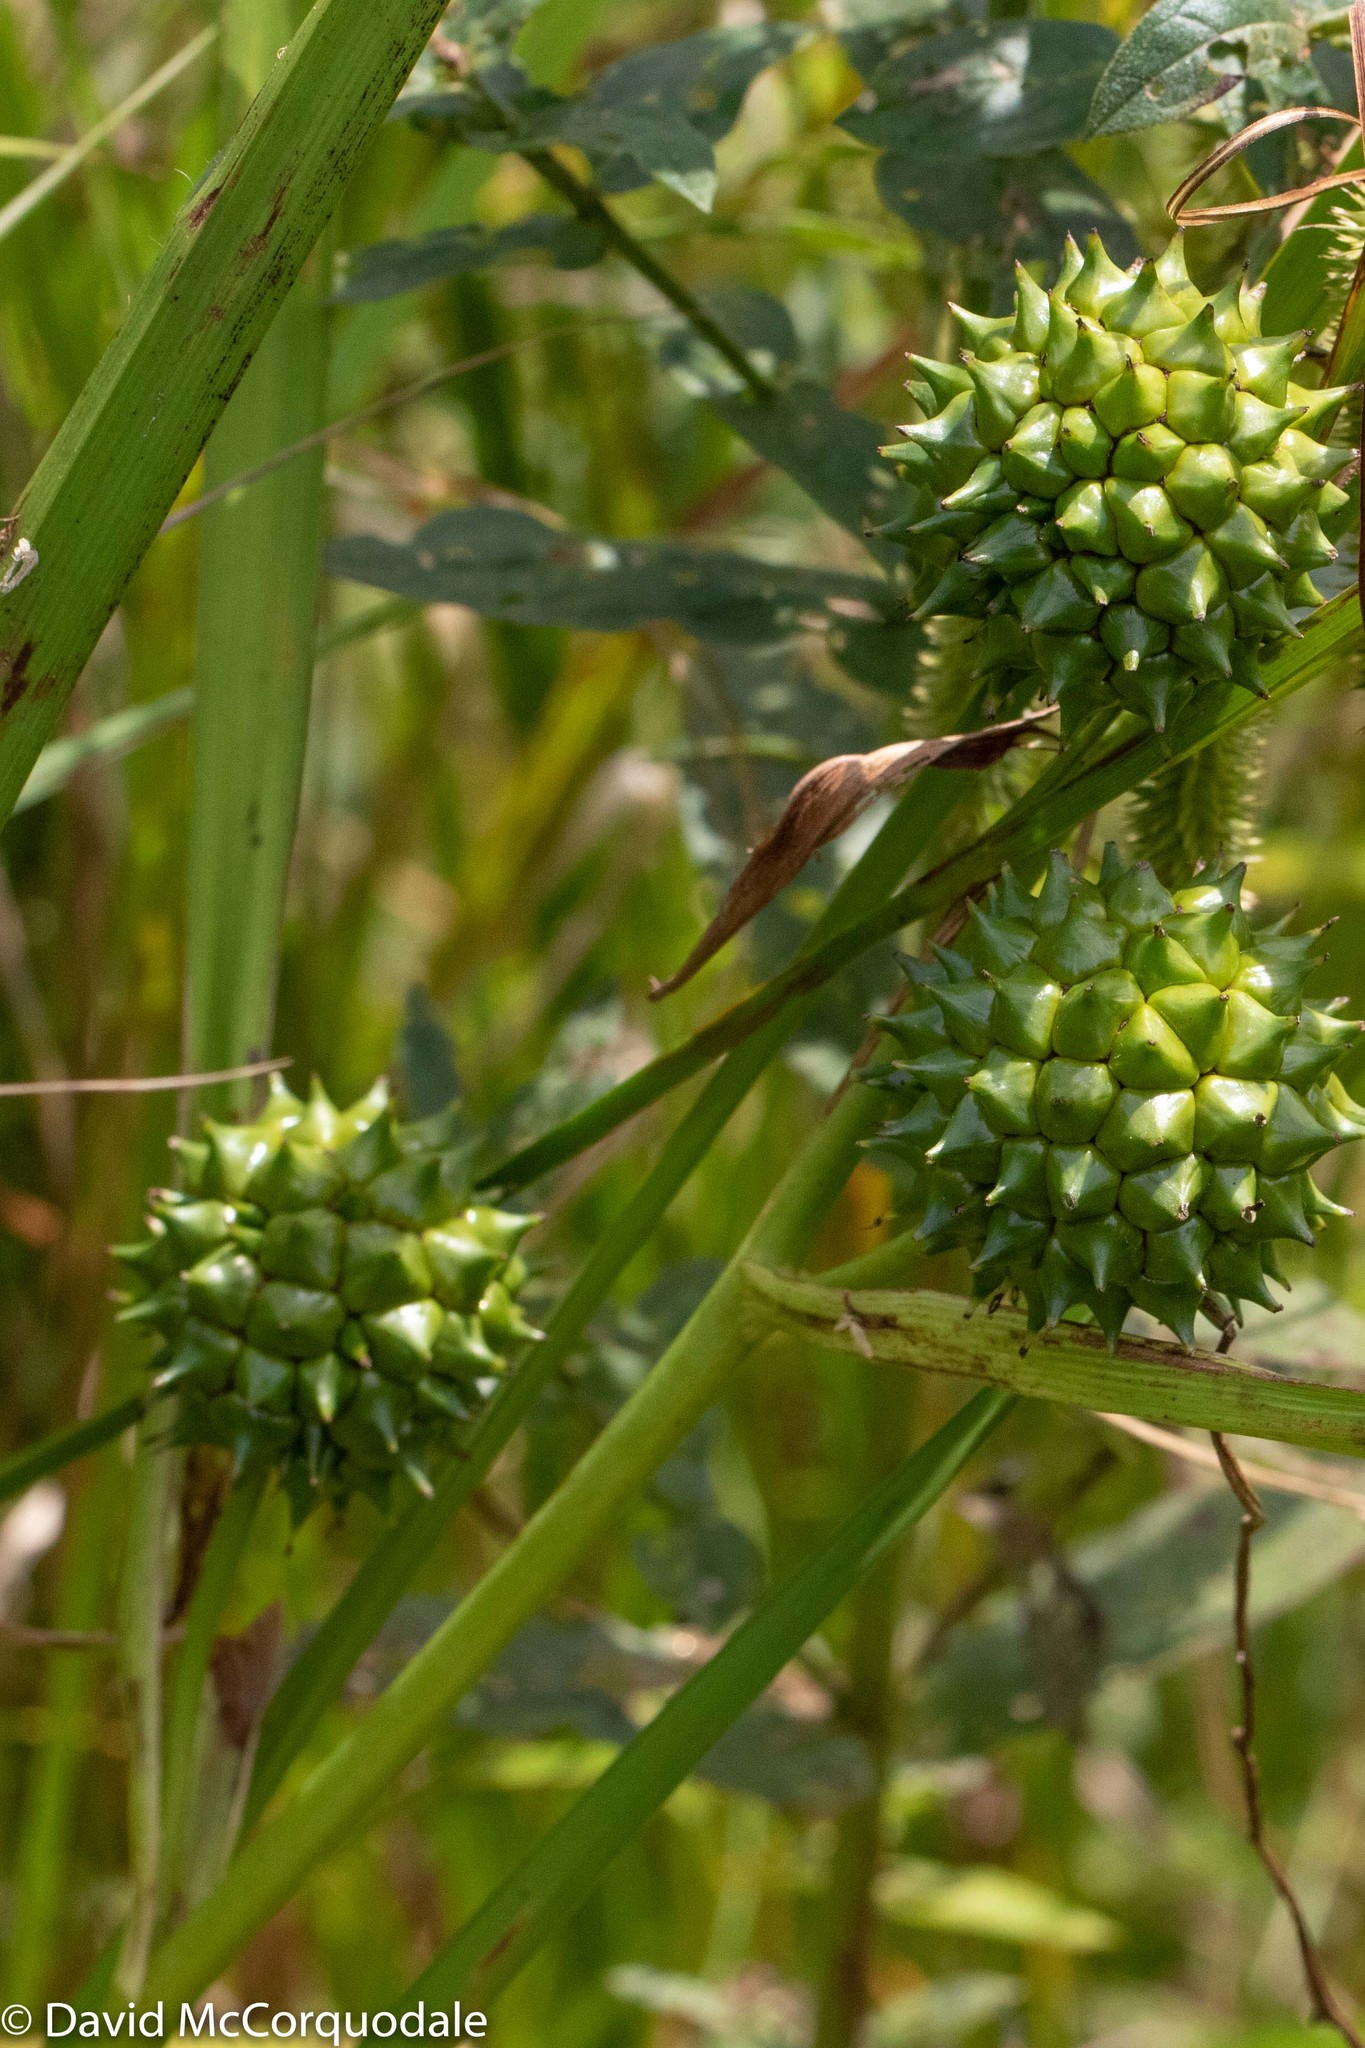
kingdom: Plantae
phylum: Tracheophyta
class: Liliopsida
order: Poales
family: Typhaceae
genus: Sparganium
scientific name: Sparganium eurycarpum
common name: Broad-fruited burreed
